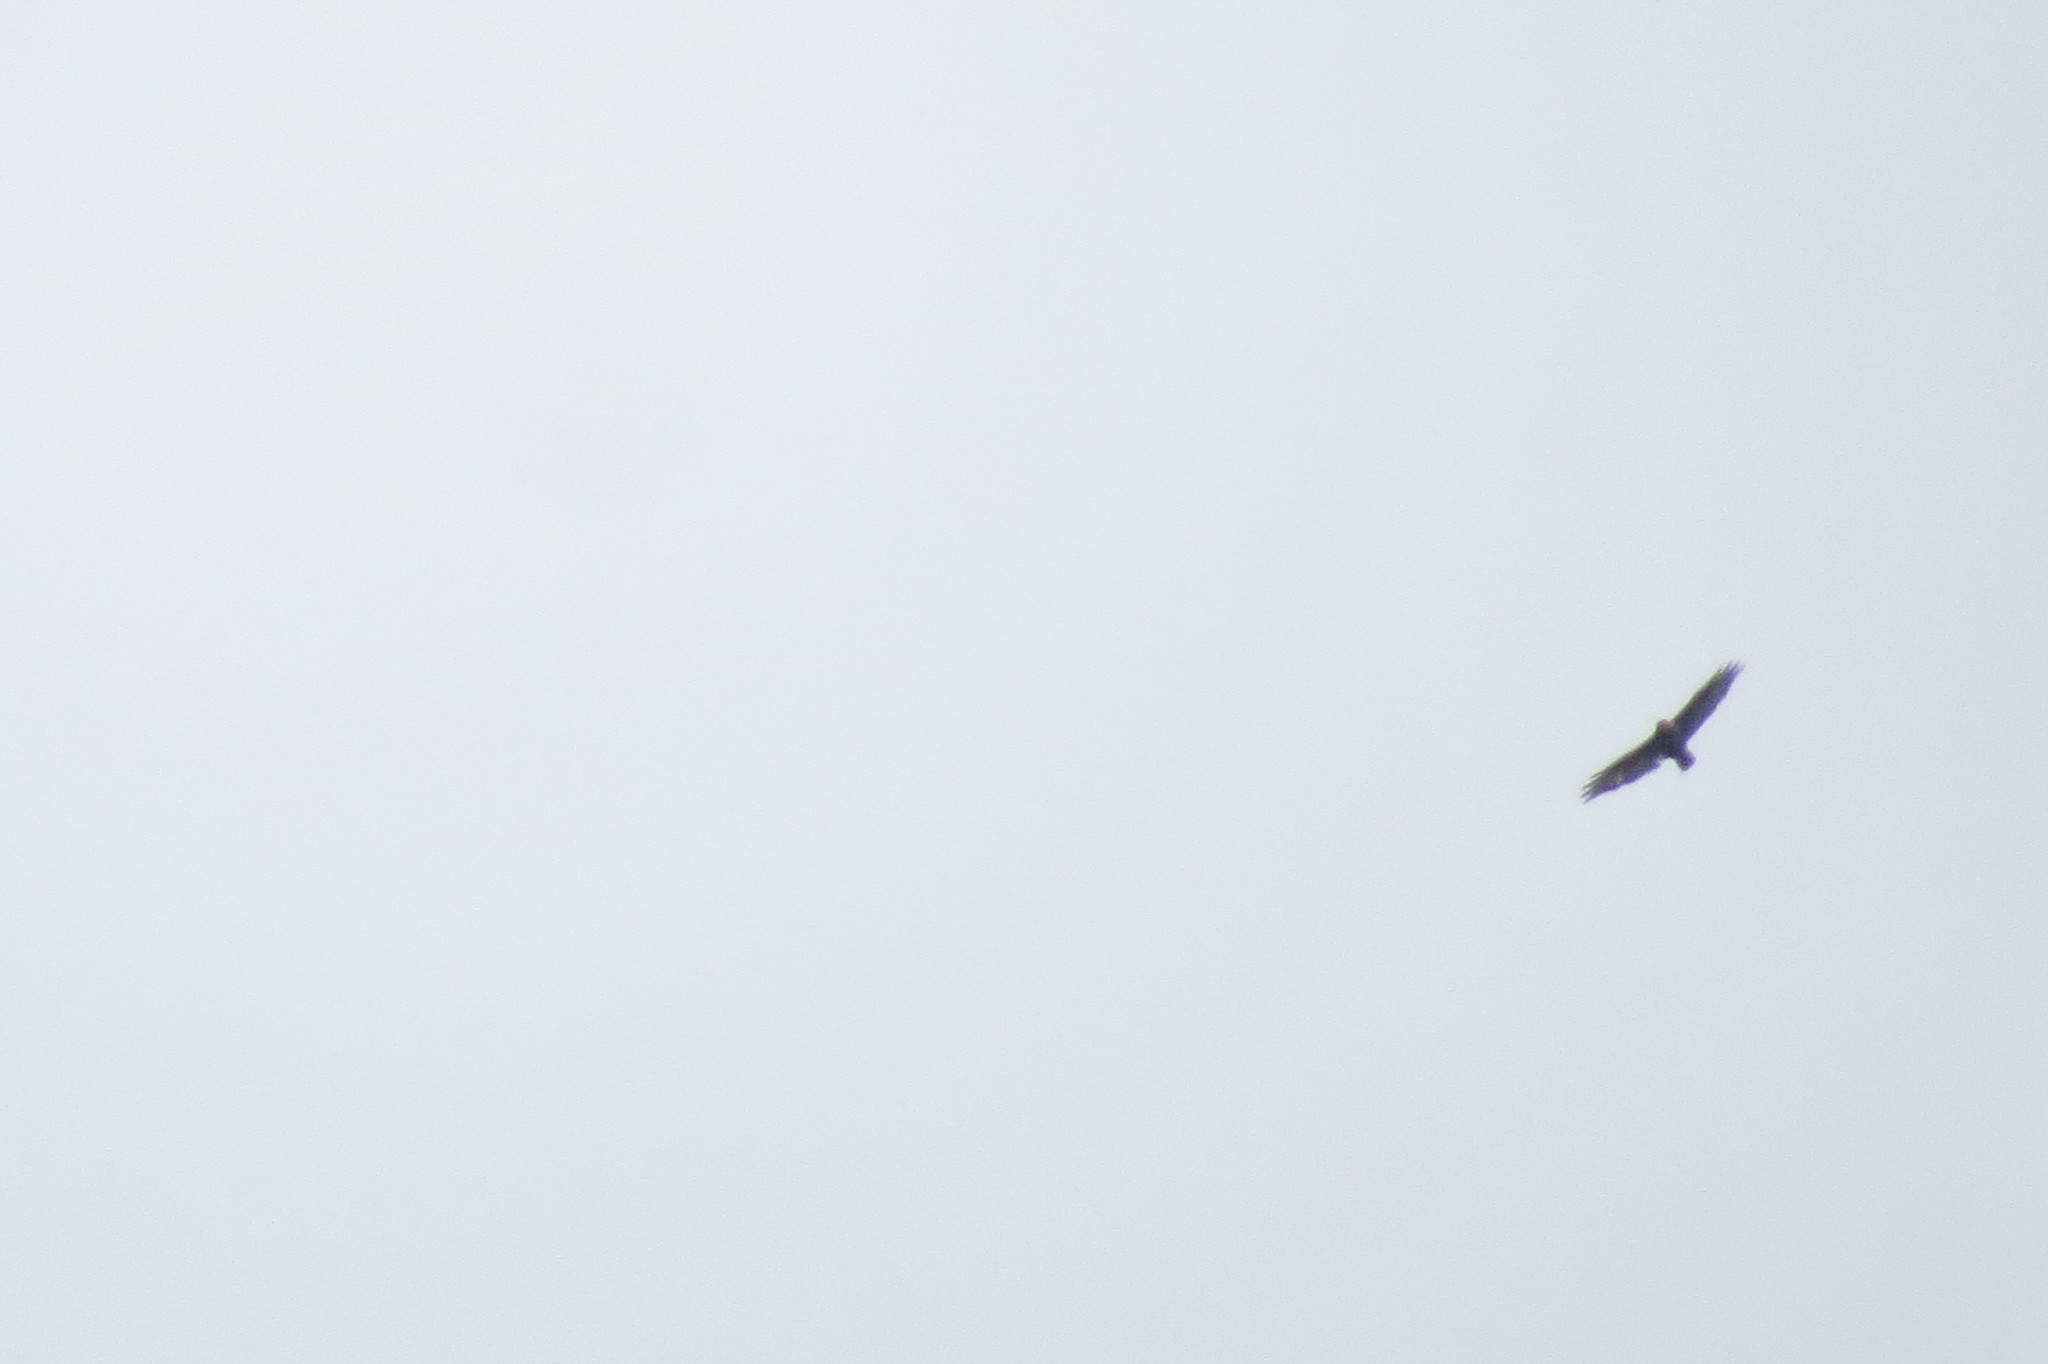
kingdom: Animalia
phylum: Chordata
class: Aves
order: Accipitriformes
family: Accipitridae
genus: Buteo
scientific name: Buteo buteo
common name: Common buzzard
